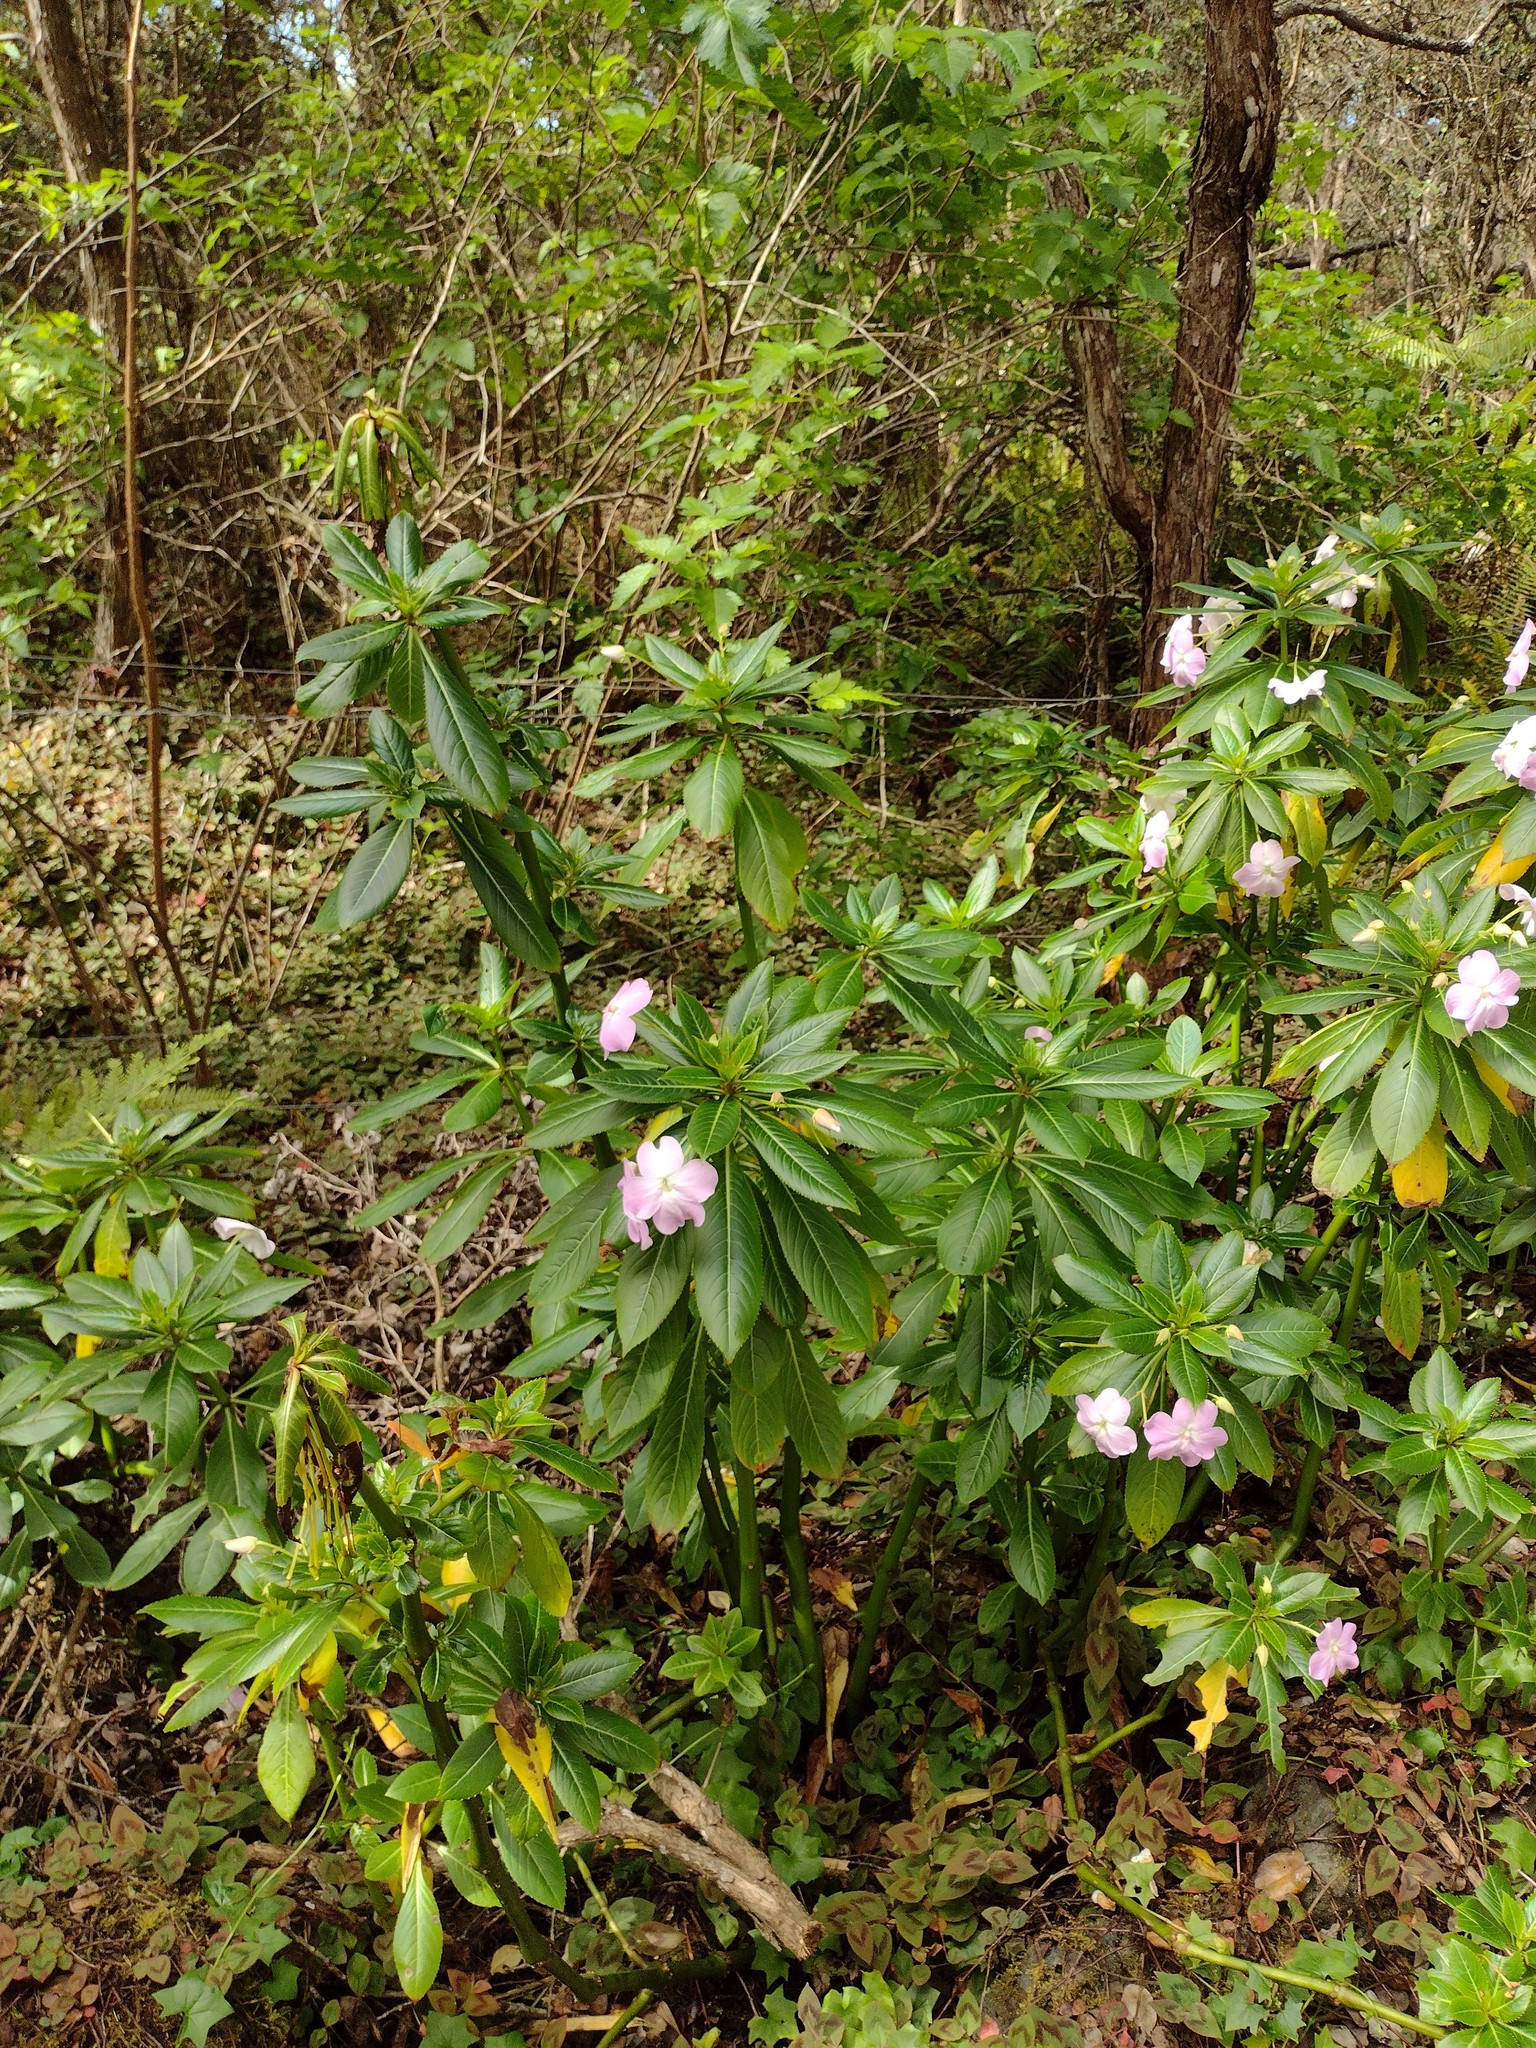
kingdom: Plantae
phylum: Tracheophyta
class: Magnoliopsida
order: Ericales
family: Balsaminaceae
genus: Impatiens
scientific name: Impatiens sodenii
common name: Oliver's touch-me-not
